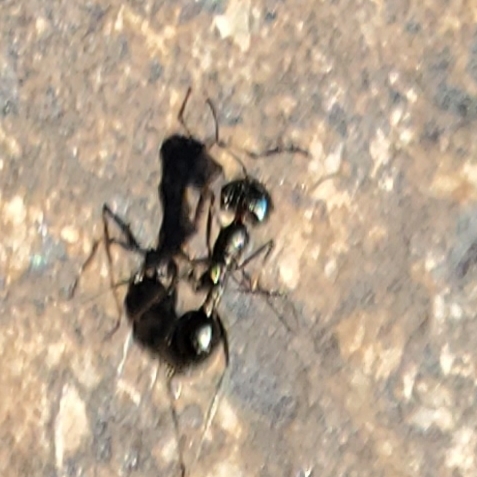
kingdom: Animalia
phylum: Arthropoda
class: Insecta
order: Hymenoptera
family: Formicidae
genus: Messor
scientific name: Messor pergandei
